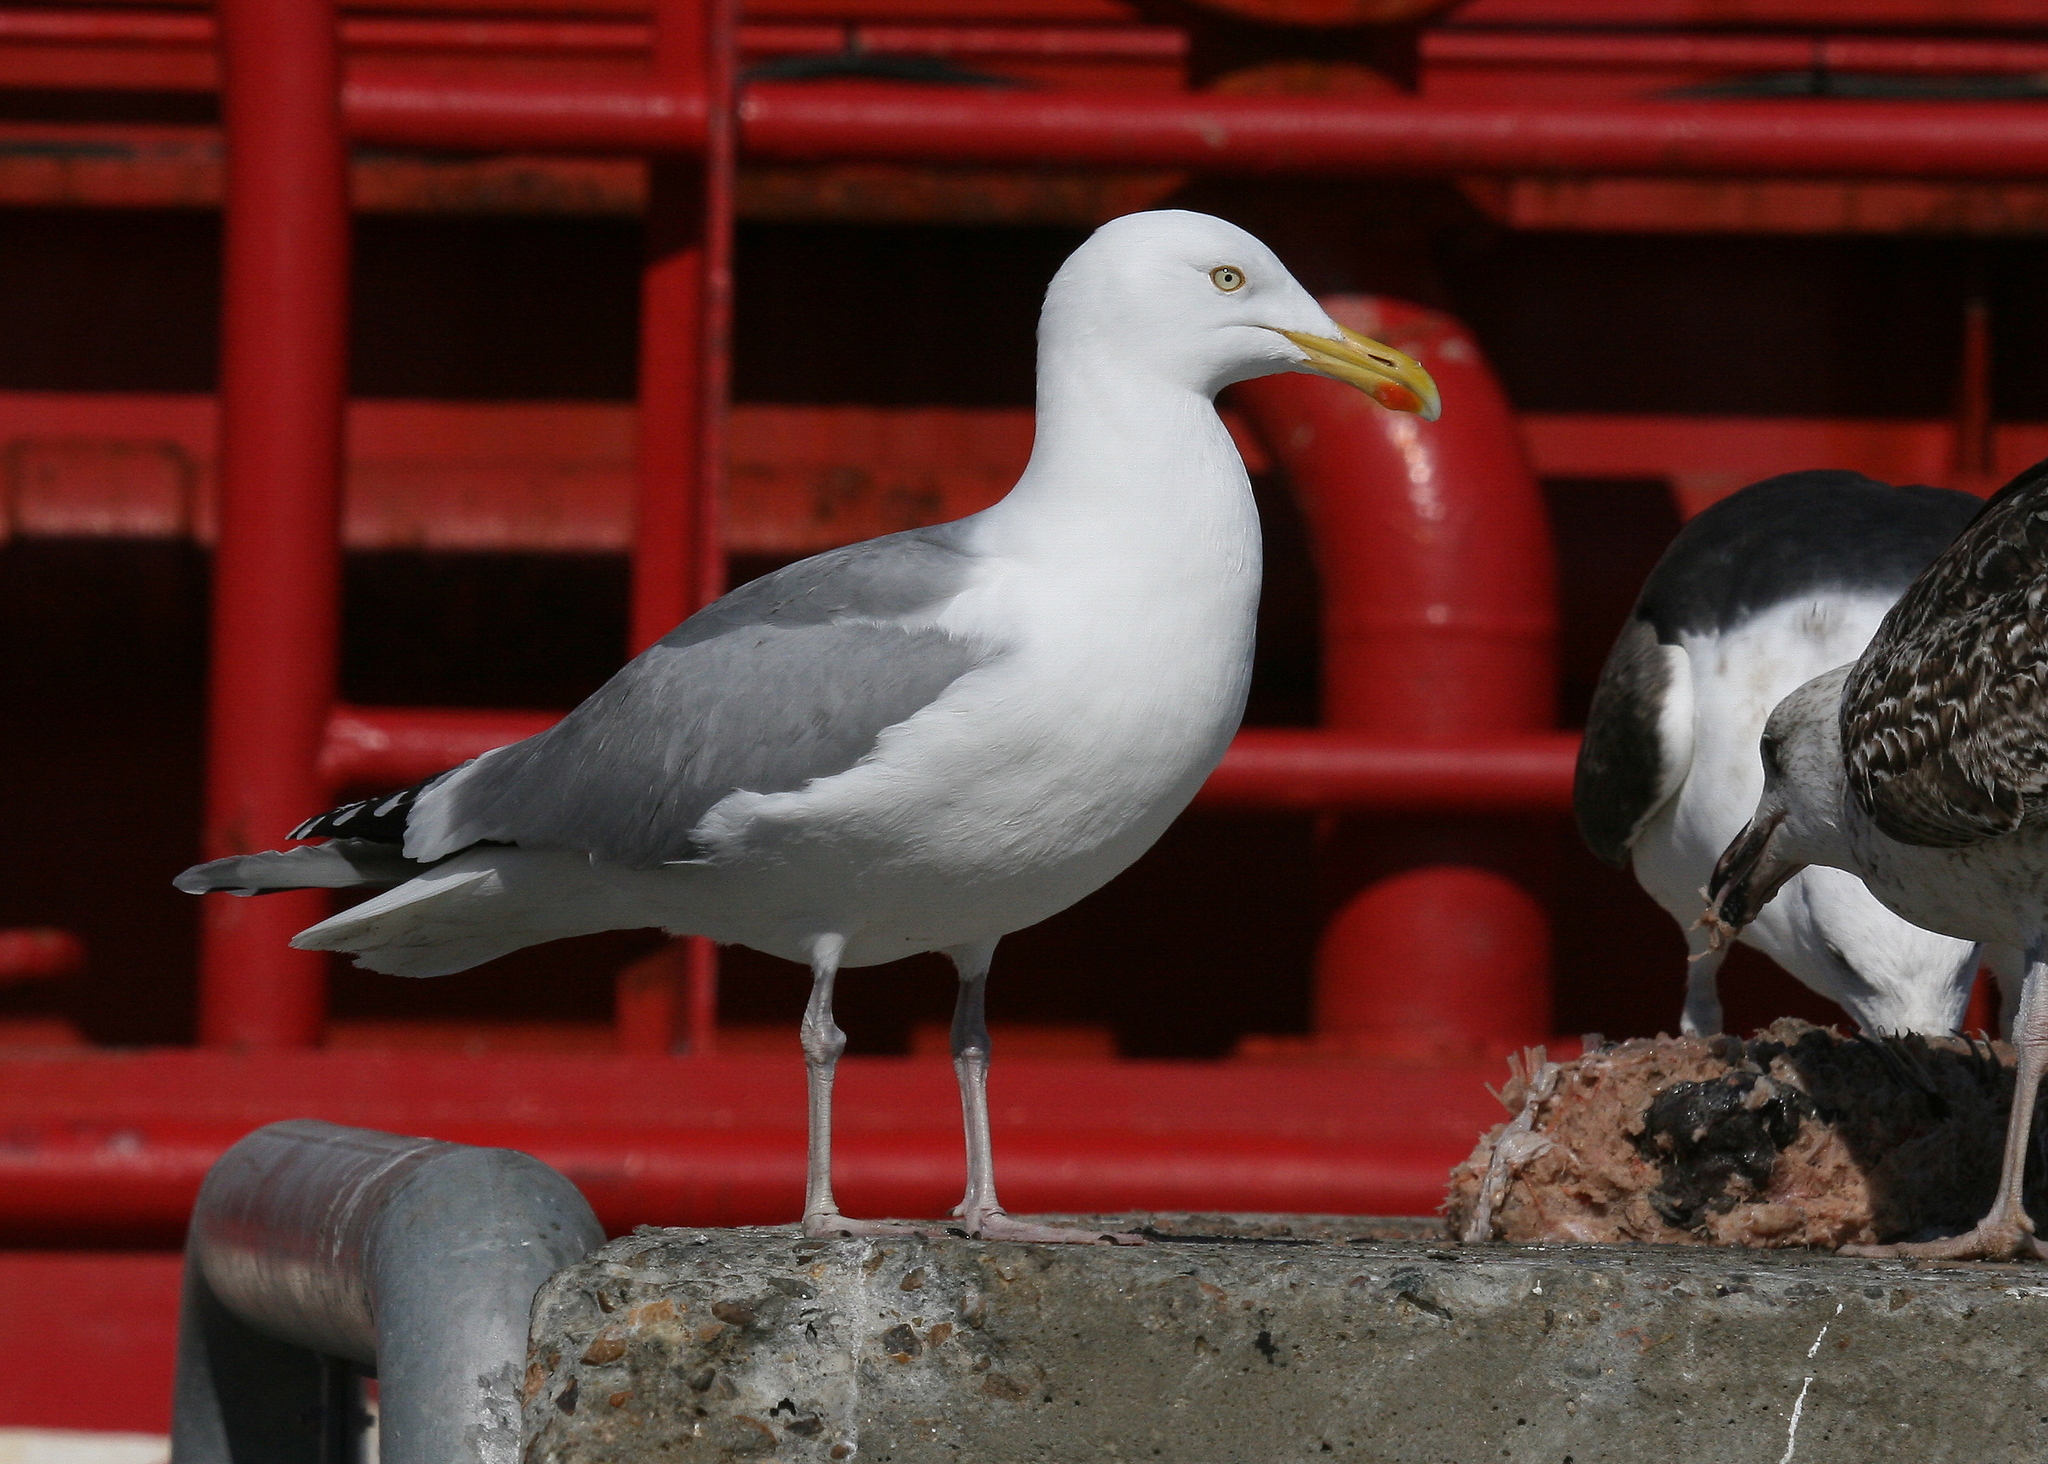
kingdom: Animalia
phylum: Chordata
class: Aves
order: Charadriiformes
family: Laridae
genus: Larus
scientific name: Larus argentatus
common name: Herring gull
